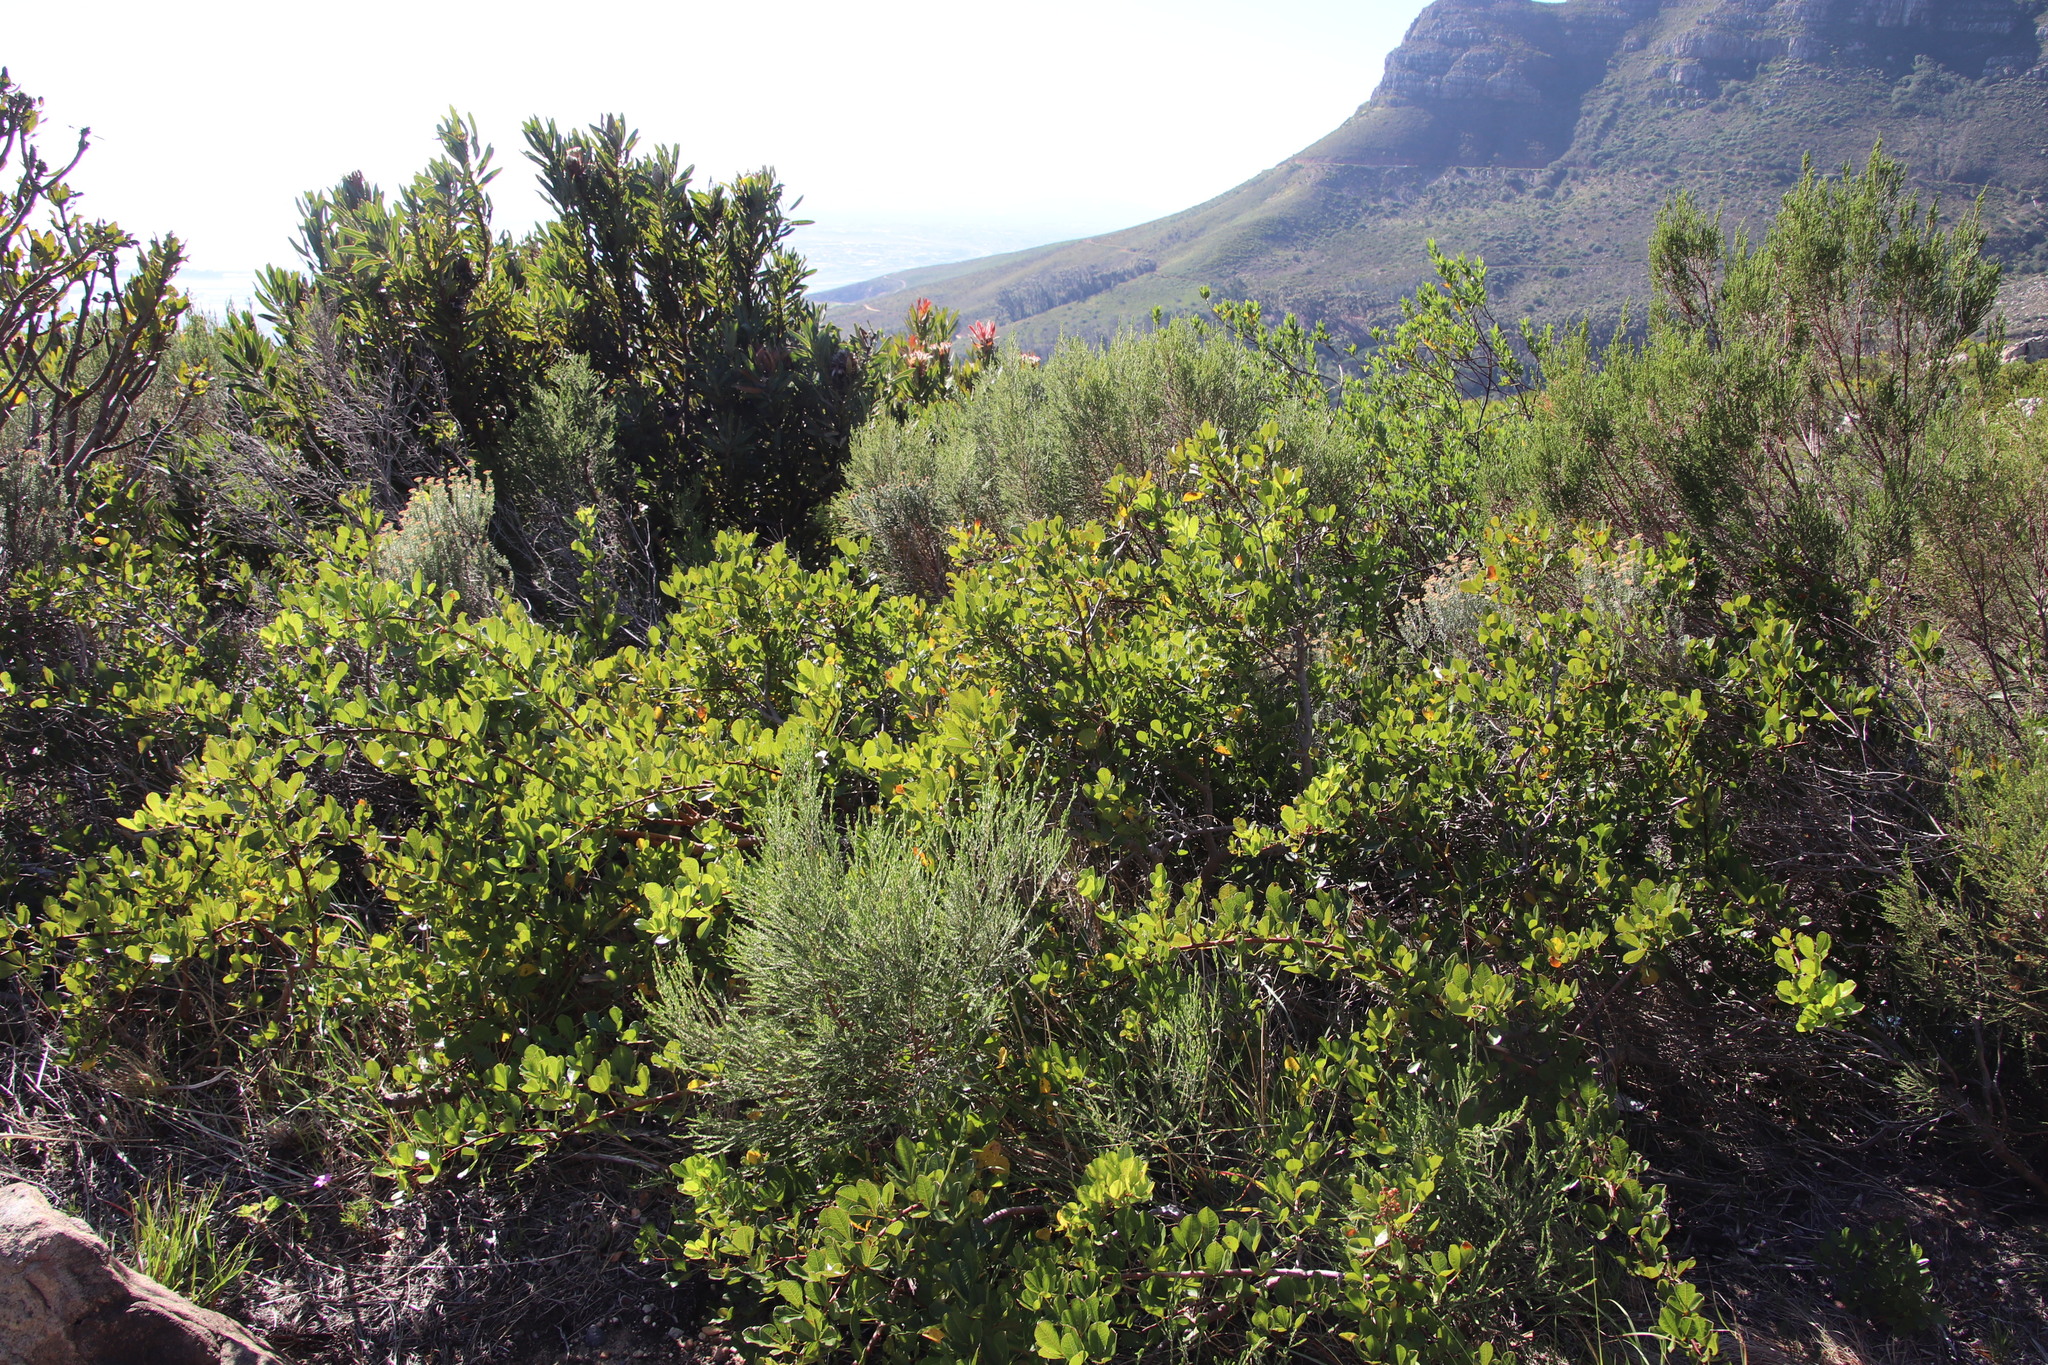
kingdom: Plantae
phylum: Tracheophyta
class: Magnoliopsida
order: Sapindales
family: Anacardiaceae
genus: Searsia
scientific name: Searsia laevigata
